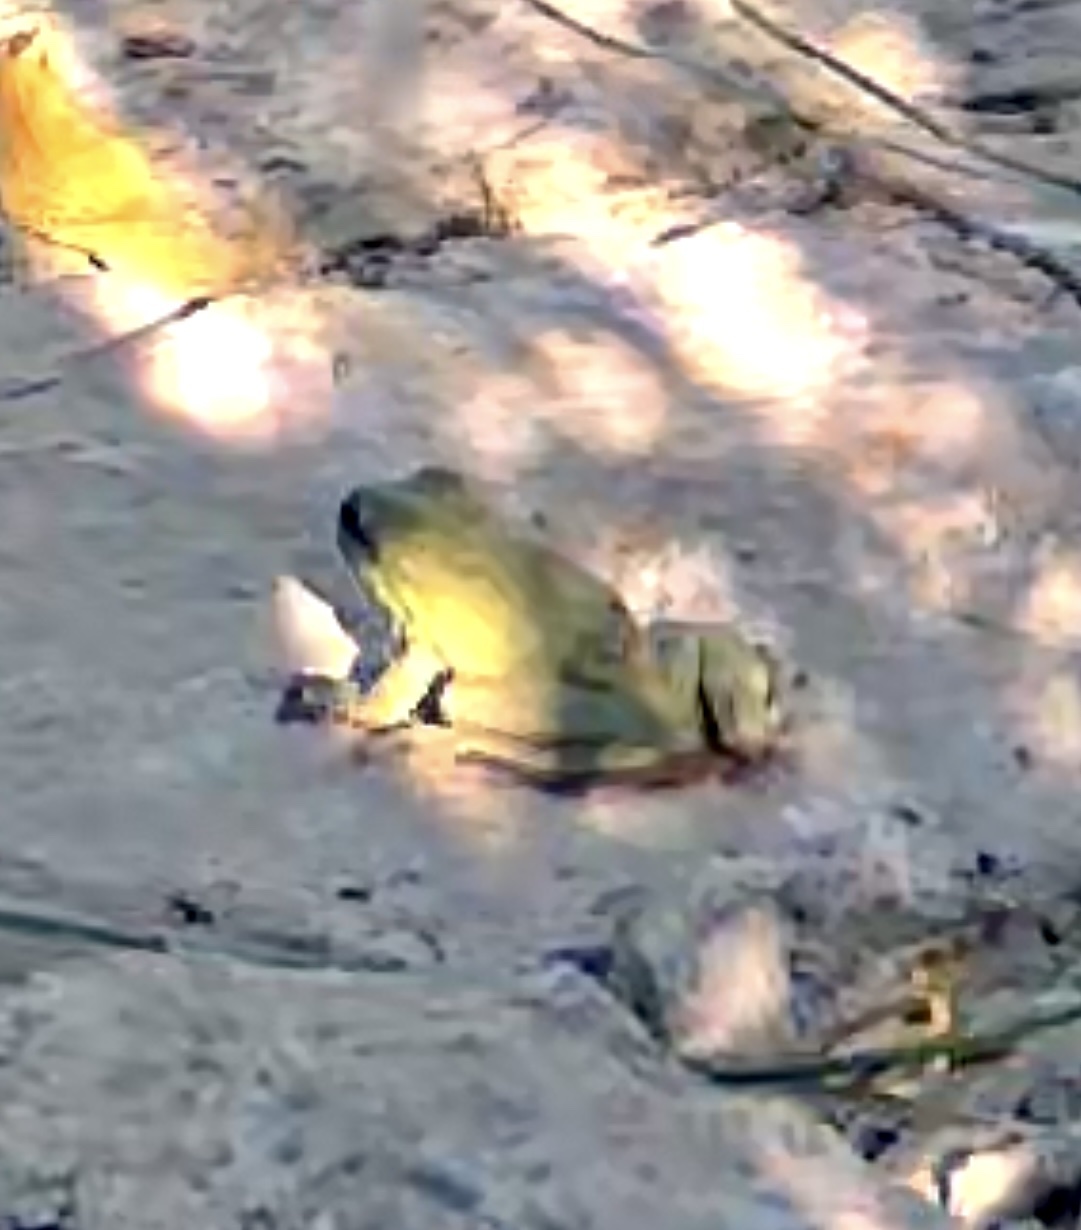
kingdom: Animalia
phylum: Chordata
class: Amphibia
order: Anura
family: Hylidae
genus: Hyla
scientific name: Hyla meridionalis
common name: Stripeless tree frog
